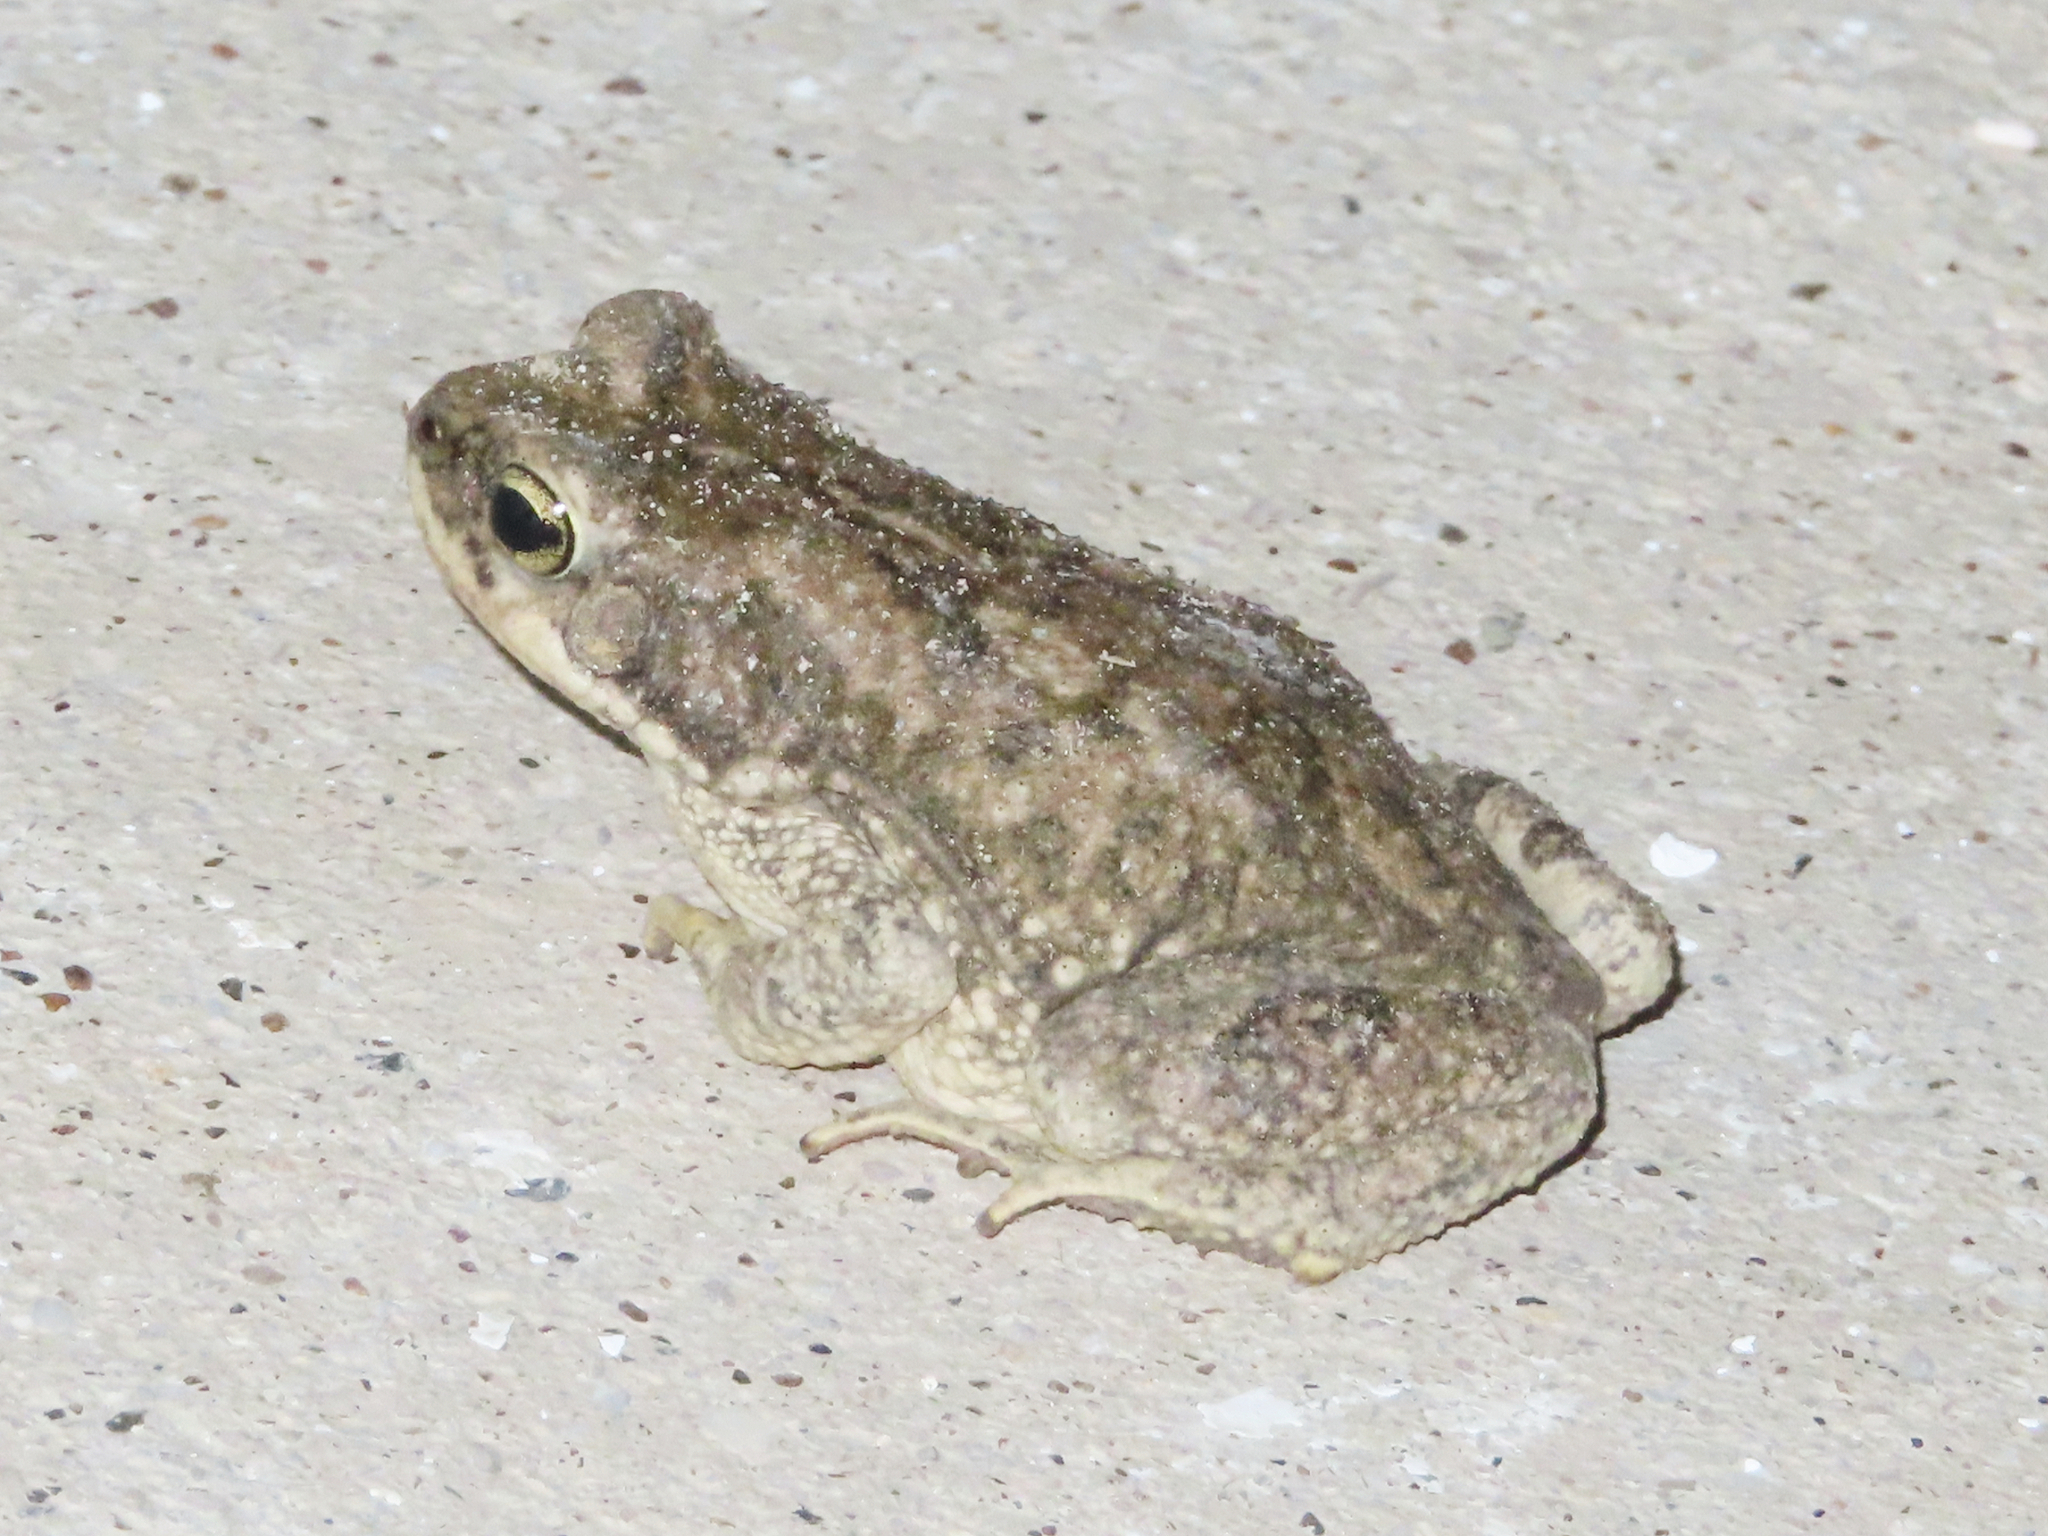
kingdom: Animalia
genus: Firouzophrynus
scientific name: Firouzophrynus
